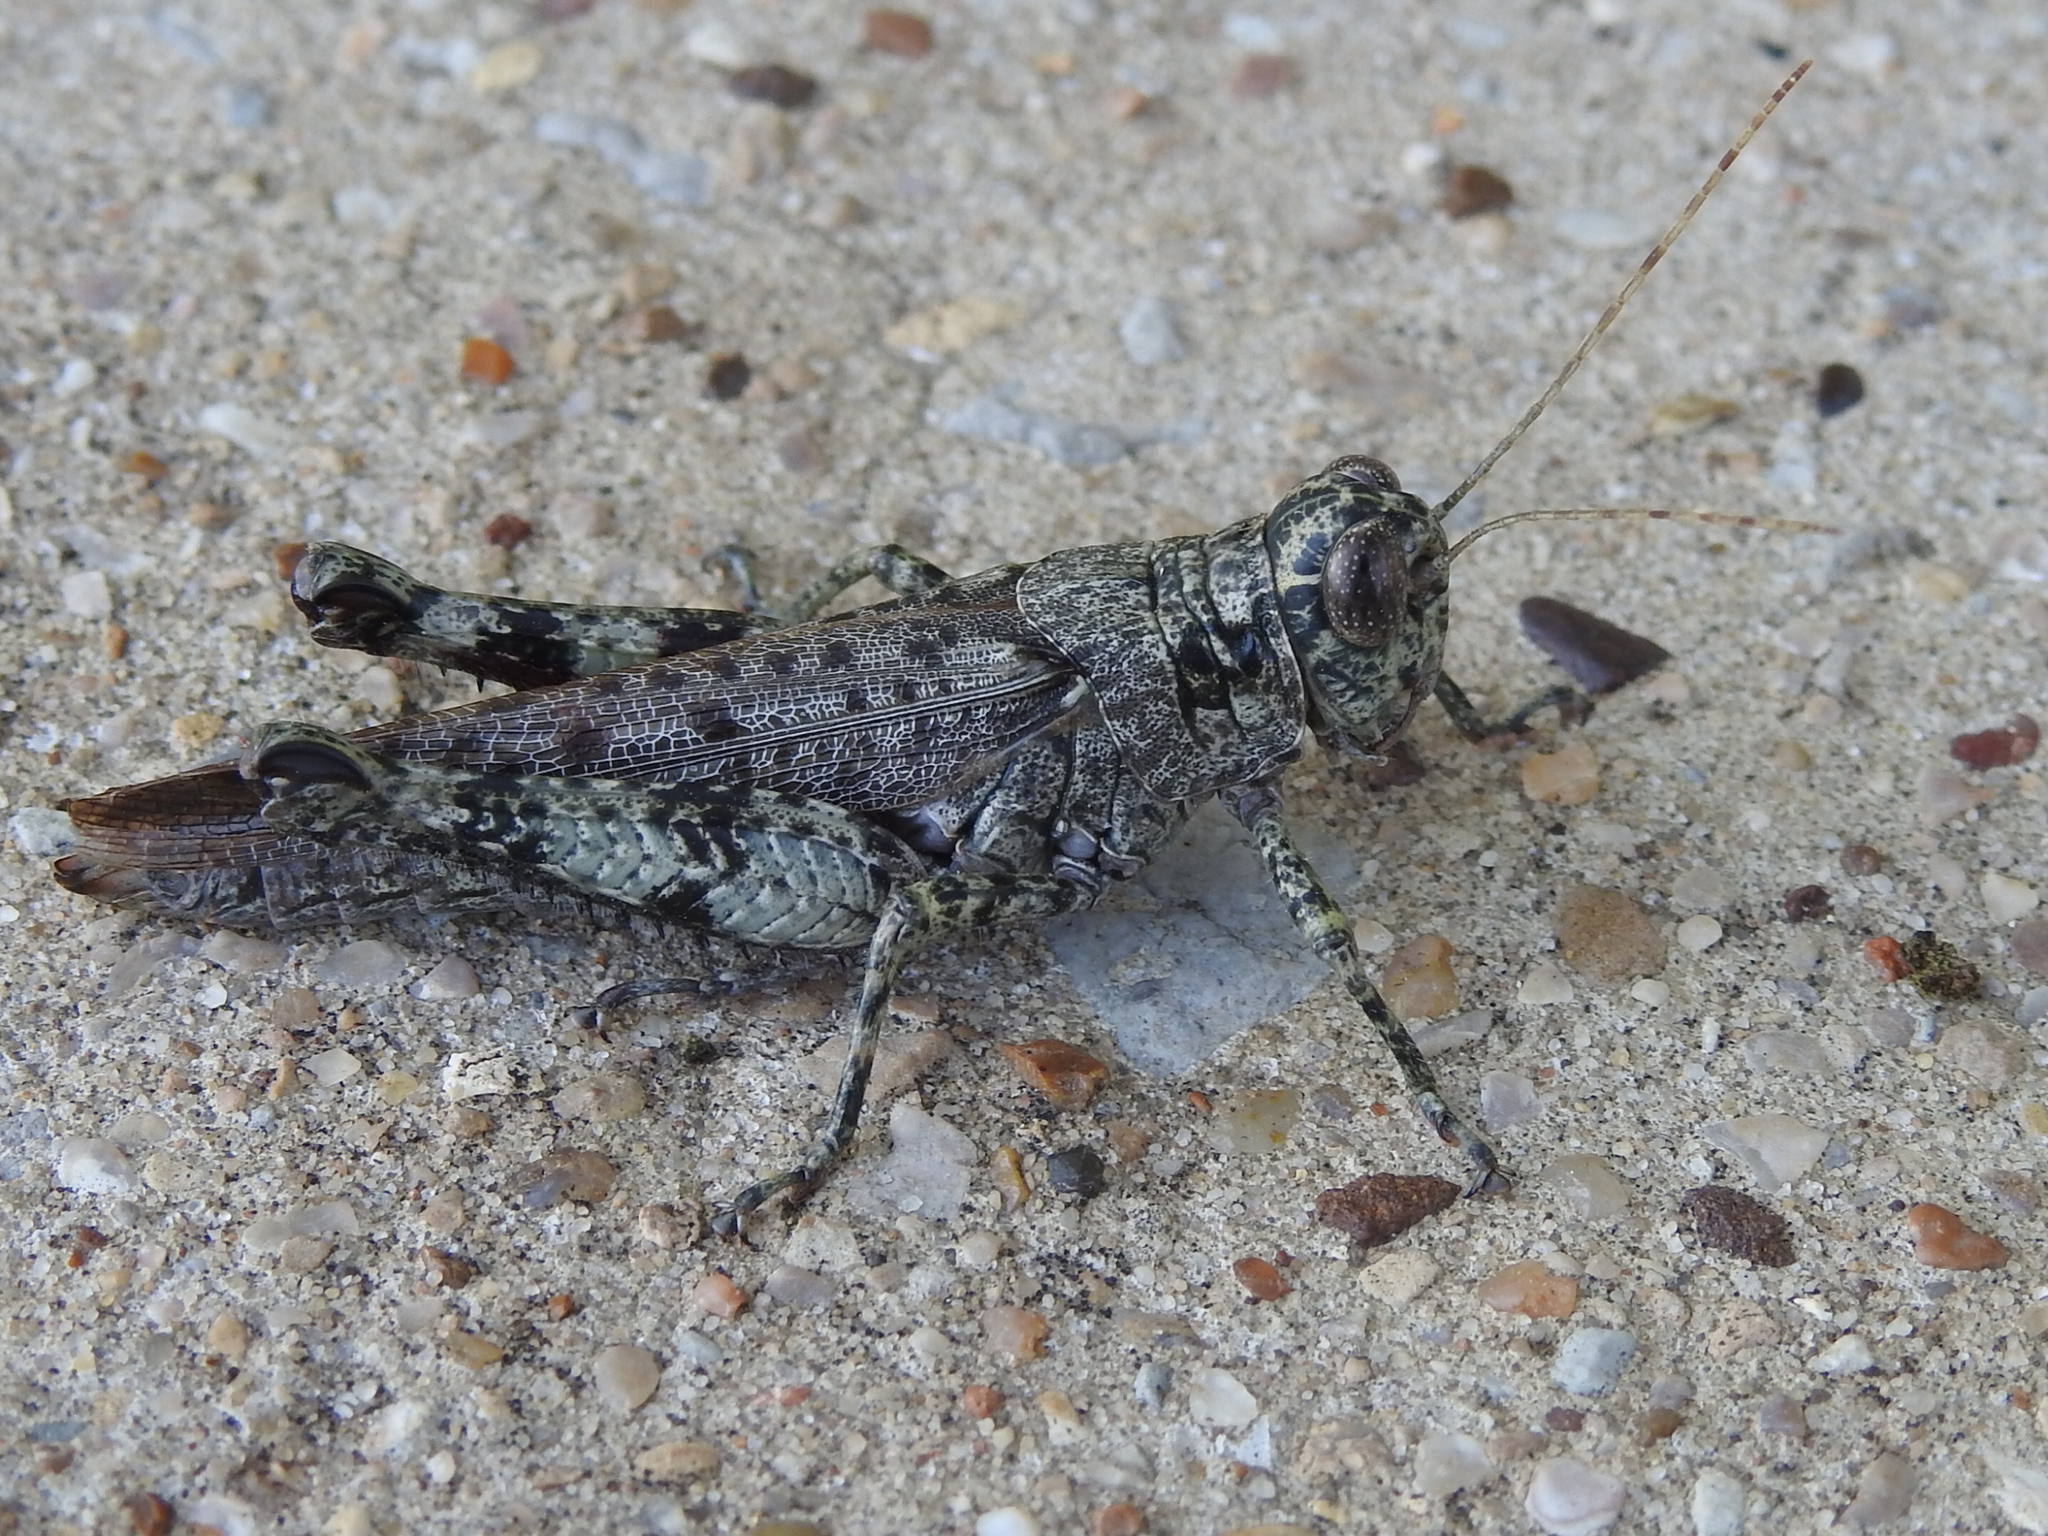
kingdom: Animalia
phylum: Arthropoda
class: Insecta
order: Orthoptera
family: Acrididae
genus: Melanoplus
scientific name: Melanoplus punctulatus
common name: Pine-tree spur-throat grasshopper
